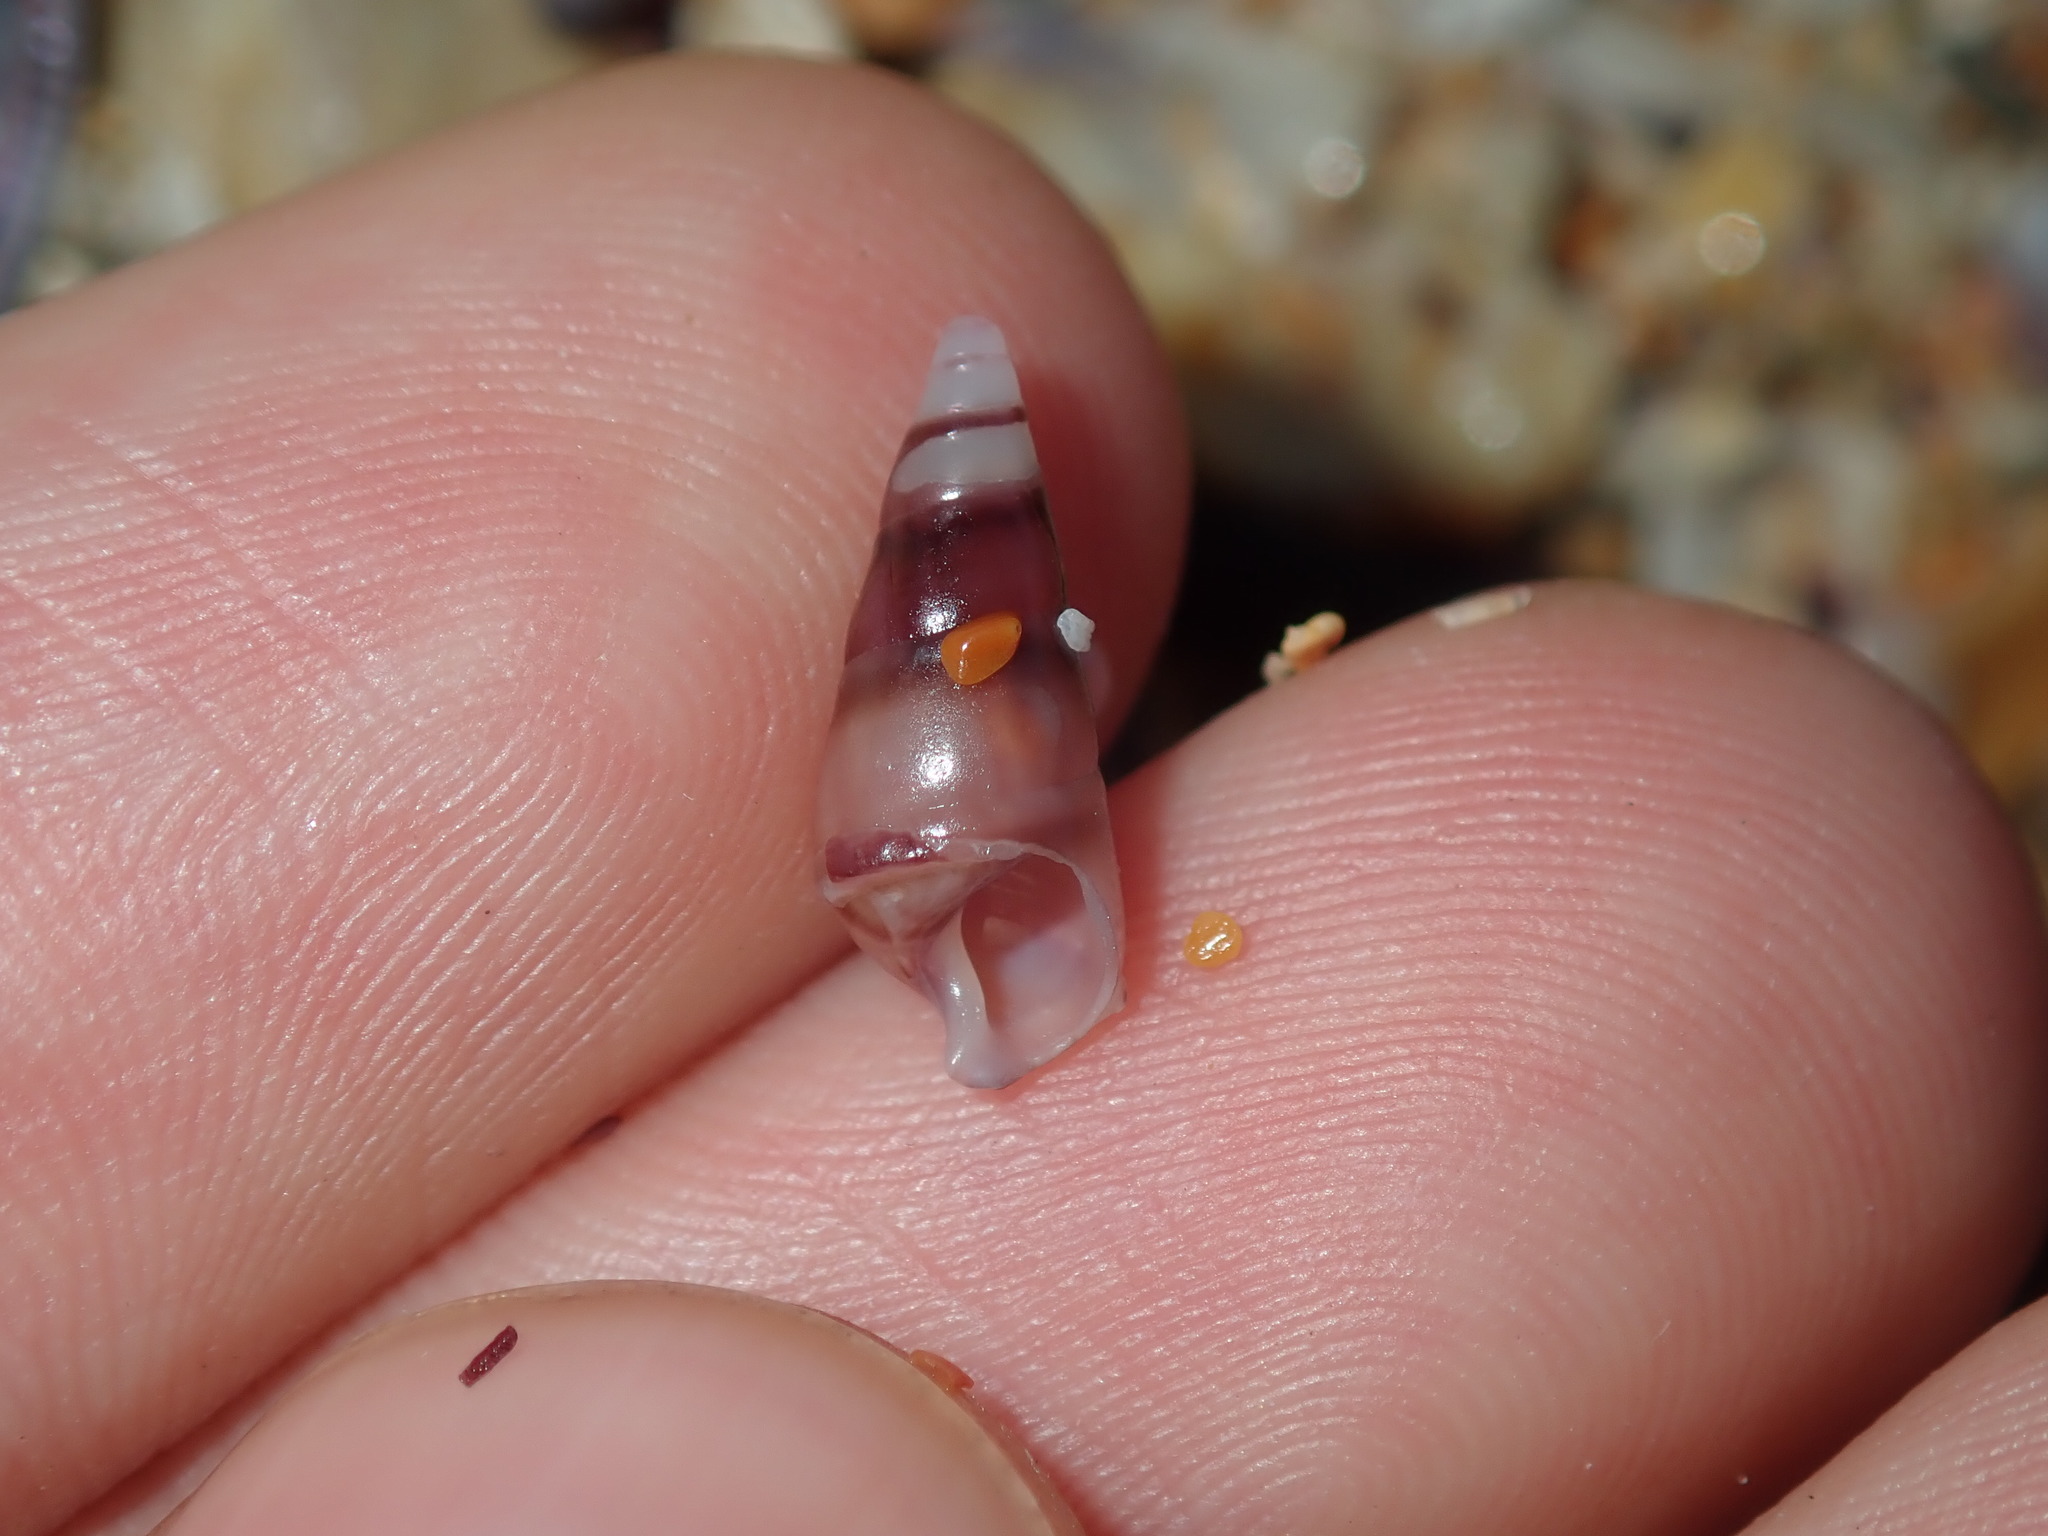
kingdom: Animalia
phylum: Mollusca
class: Gastropoda
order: Trochida
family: Trochidae
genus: Bankivia
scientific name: Bankivia fasciata
